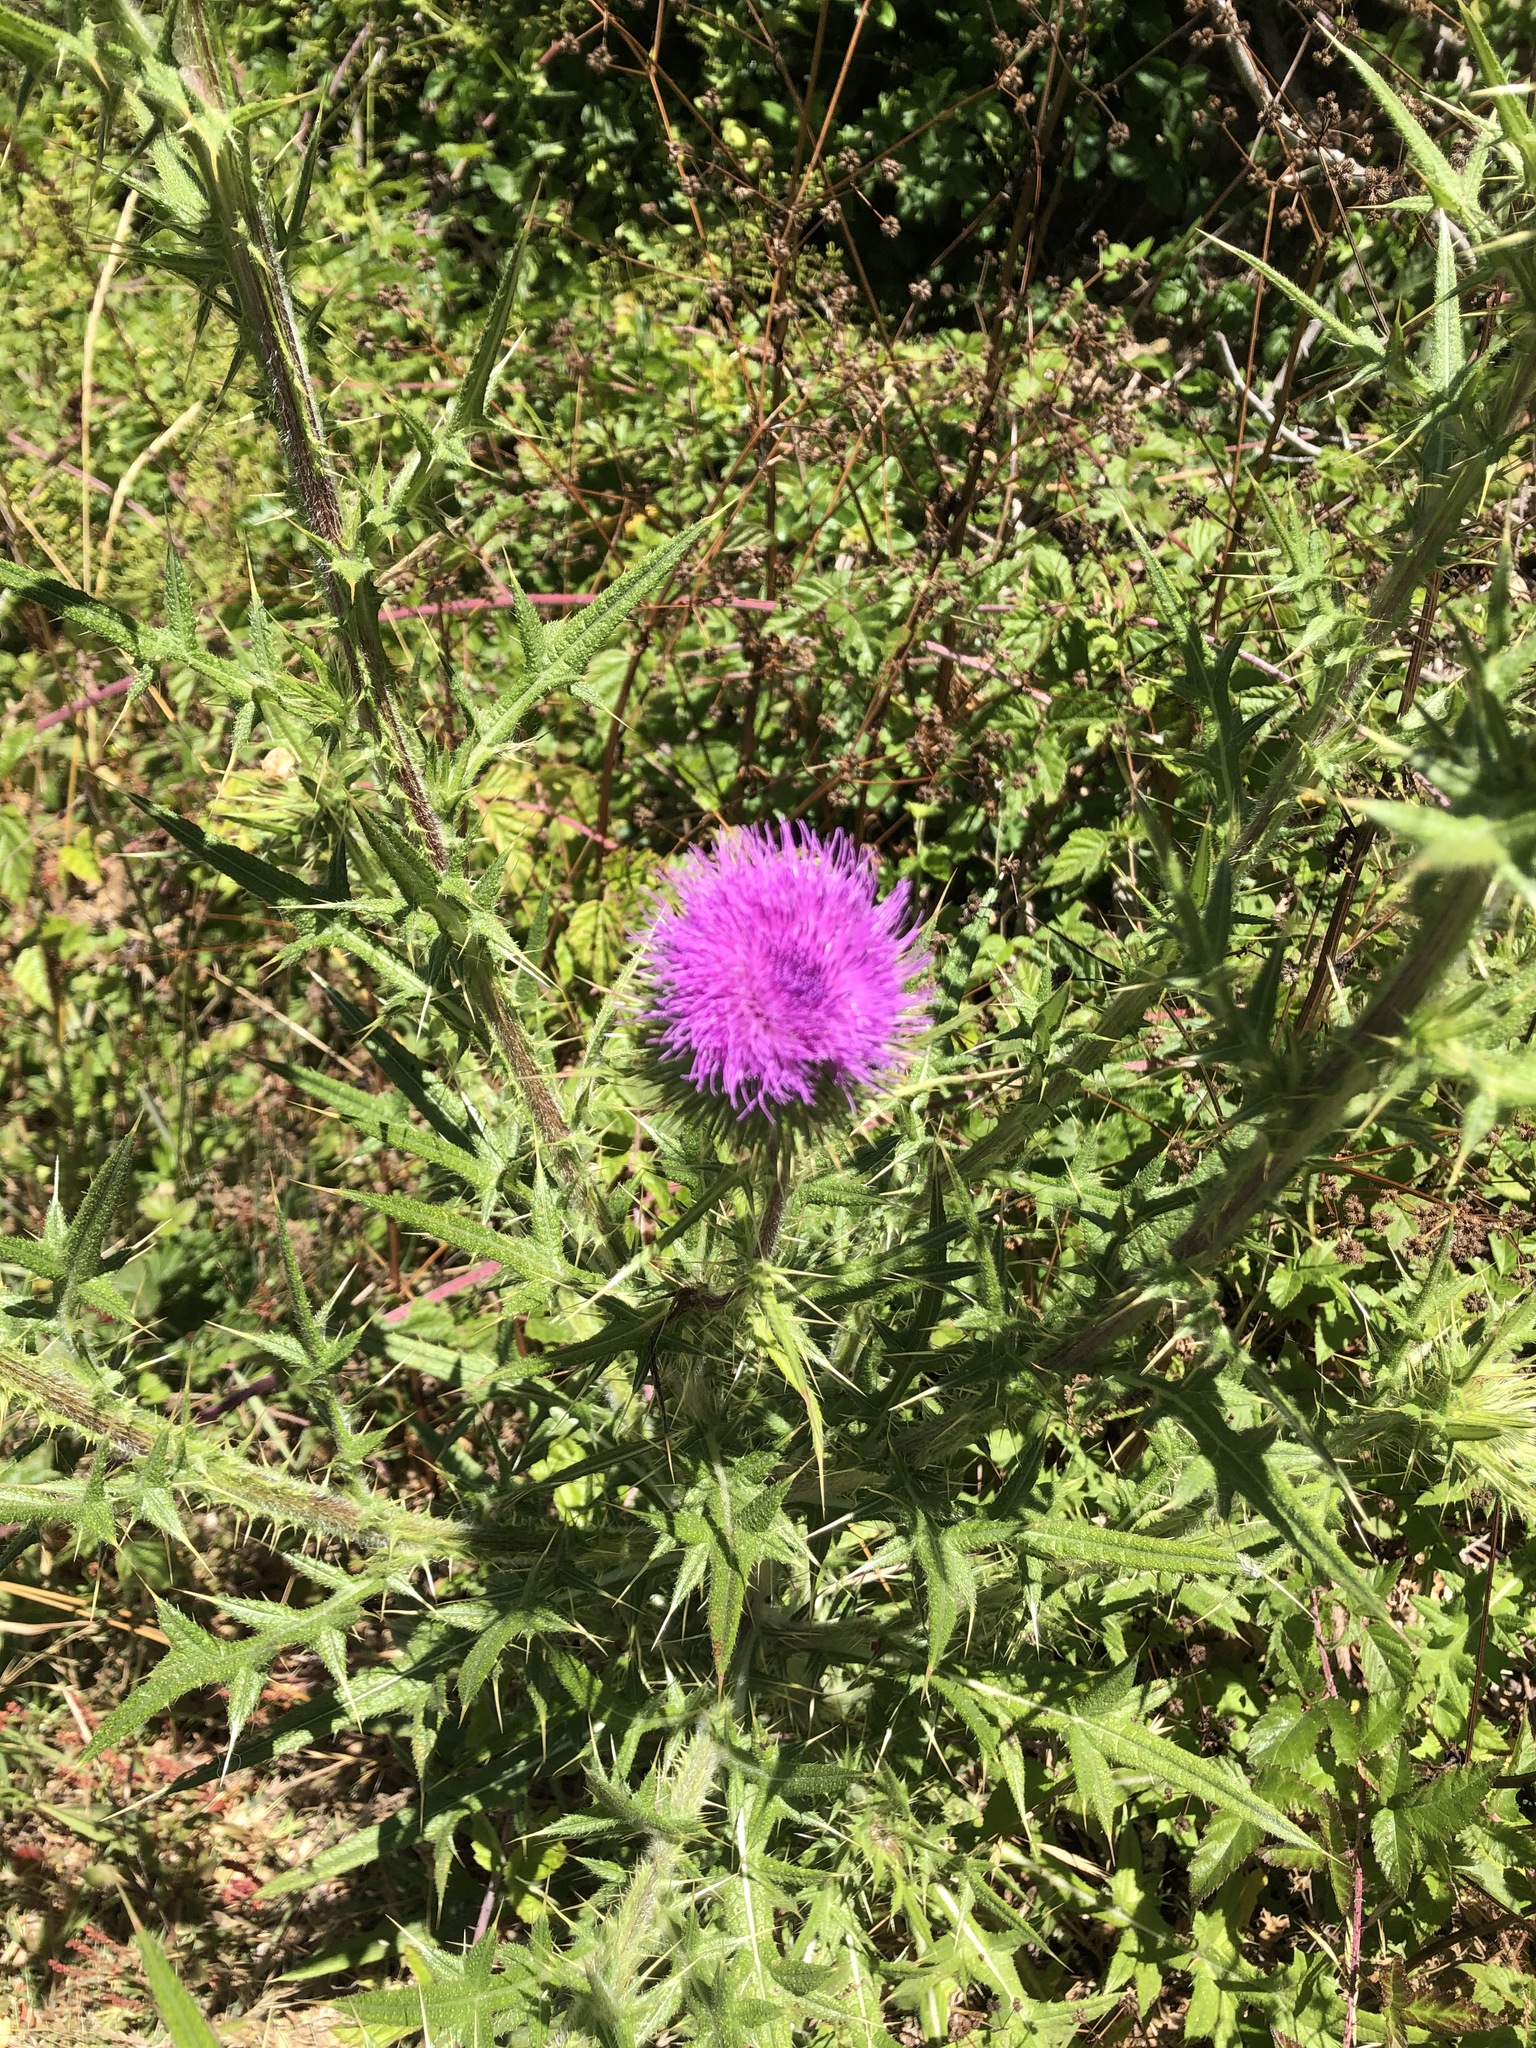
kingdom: Plantae
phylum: Tracheophyta
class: Magnoliopsida
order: Asterales
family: Asteraceae
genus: Cirsium
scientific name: Cirsium vulgare
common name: Bull thistle
